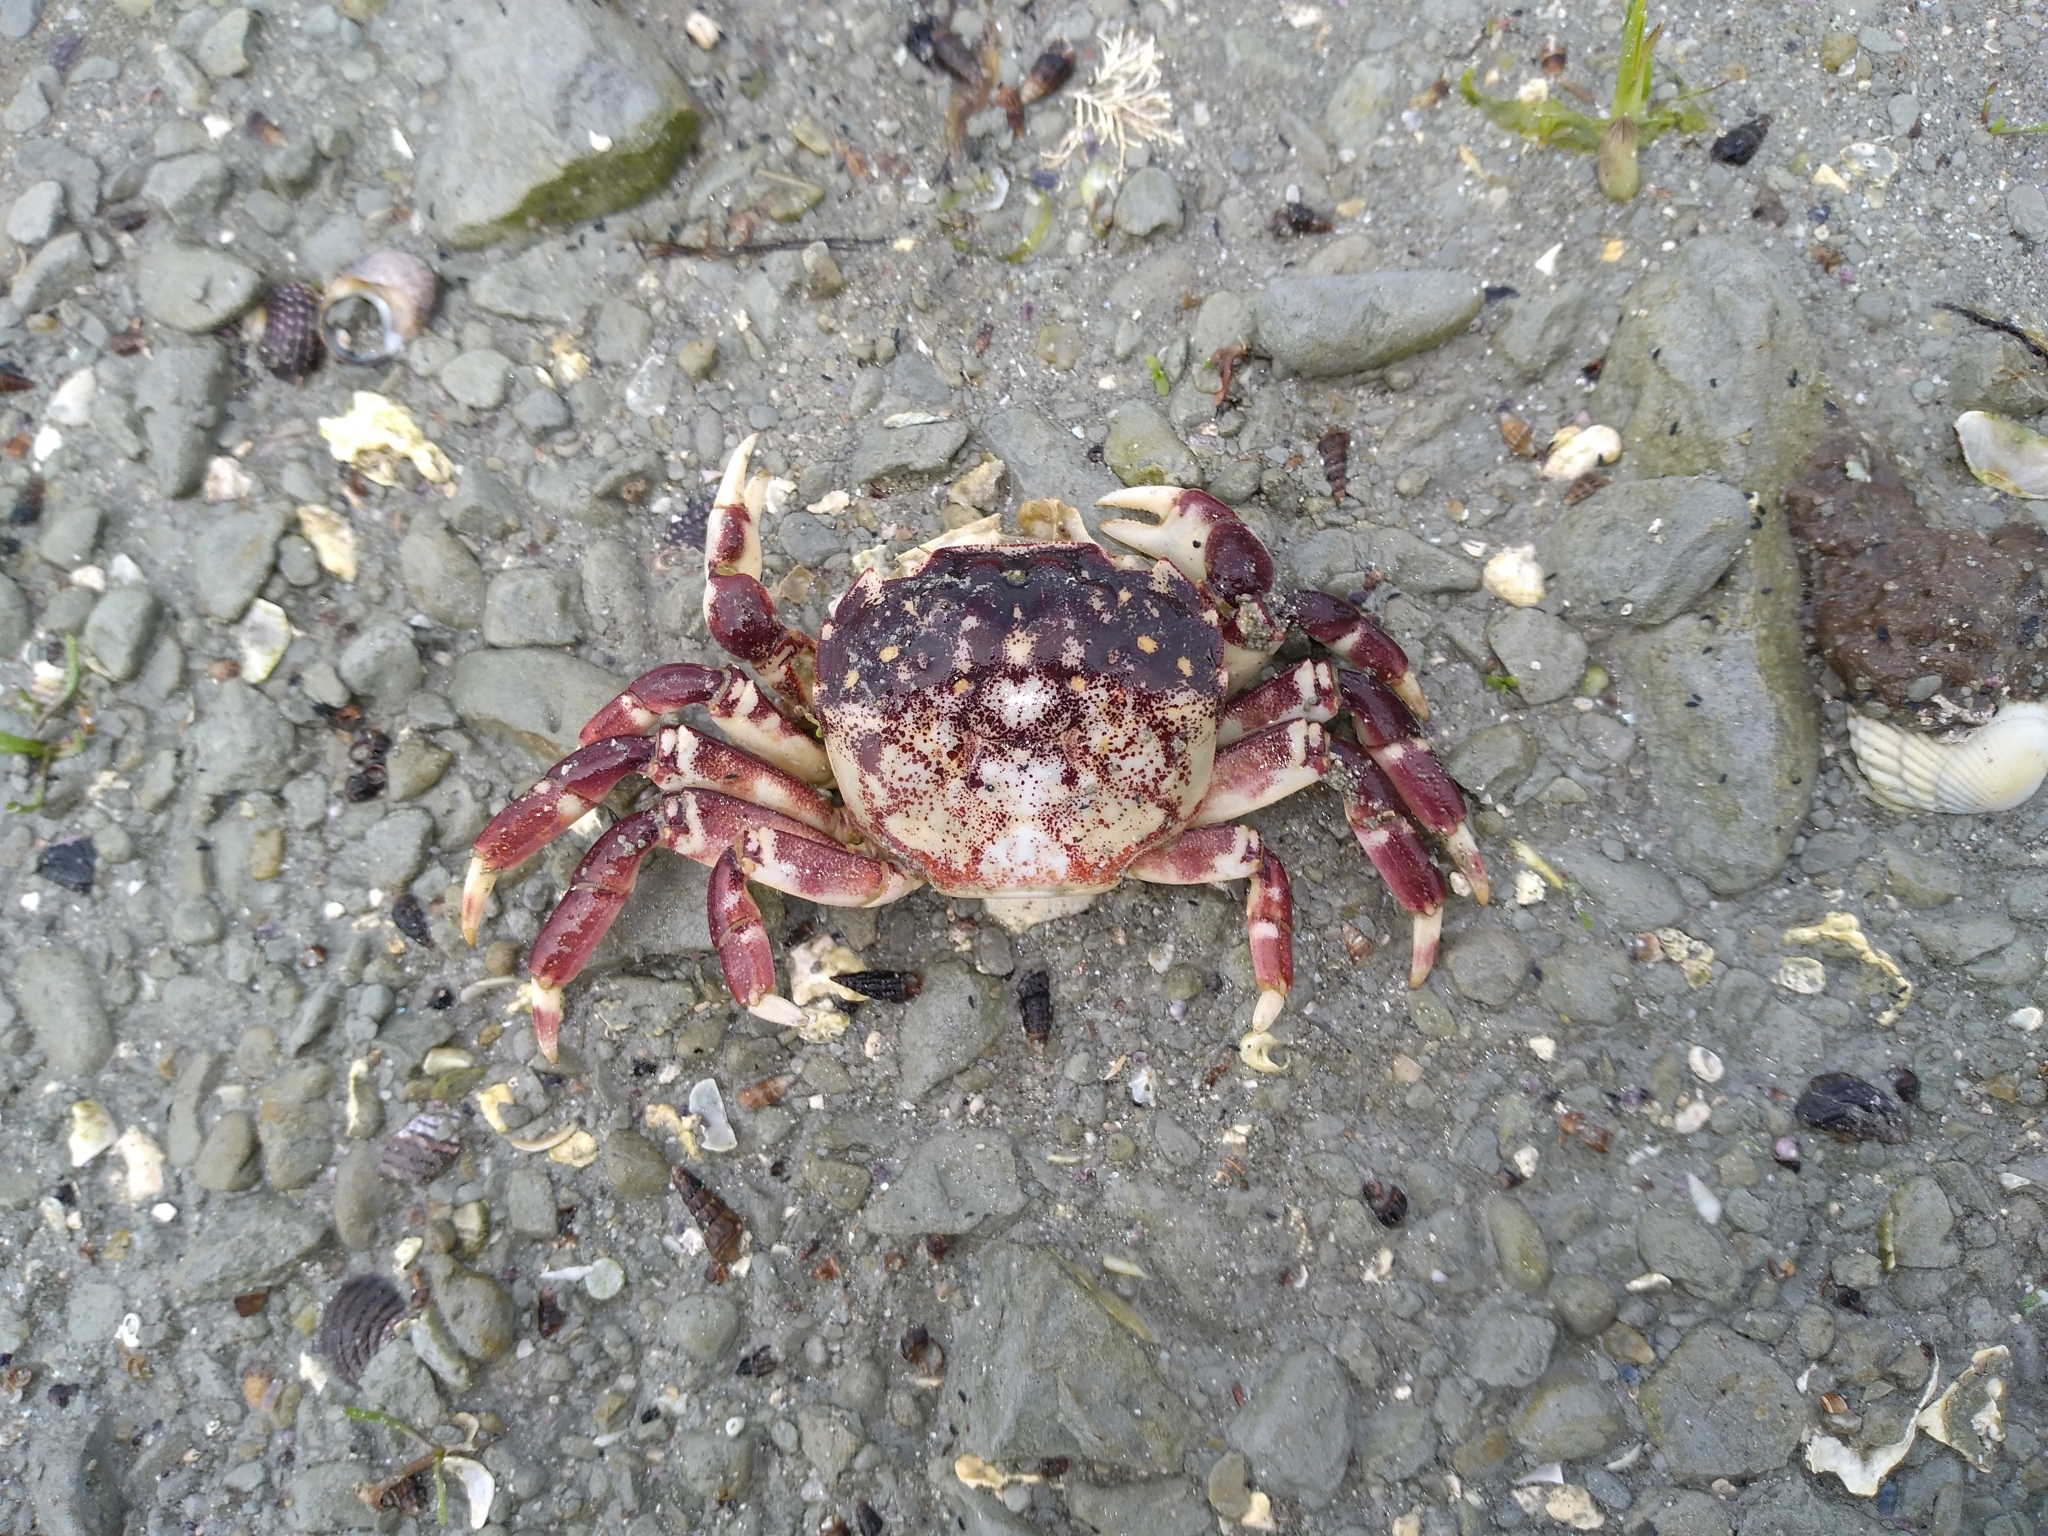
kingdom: Animalia
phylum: Arthropoda
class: Malacostraca
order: Decapoda
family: Varunidae
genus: Hemigrapsus
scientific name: Hemigrapsus sexdentatus
